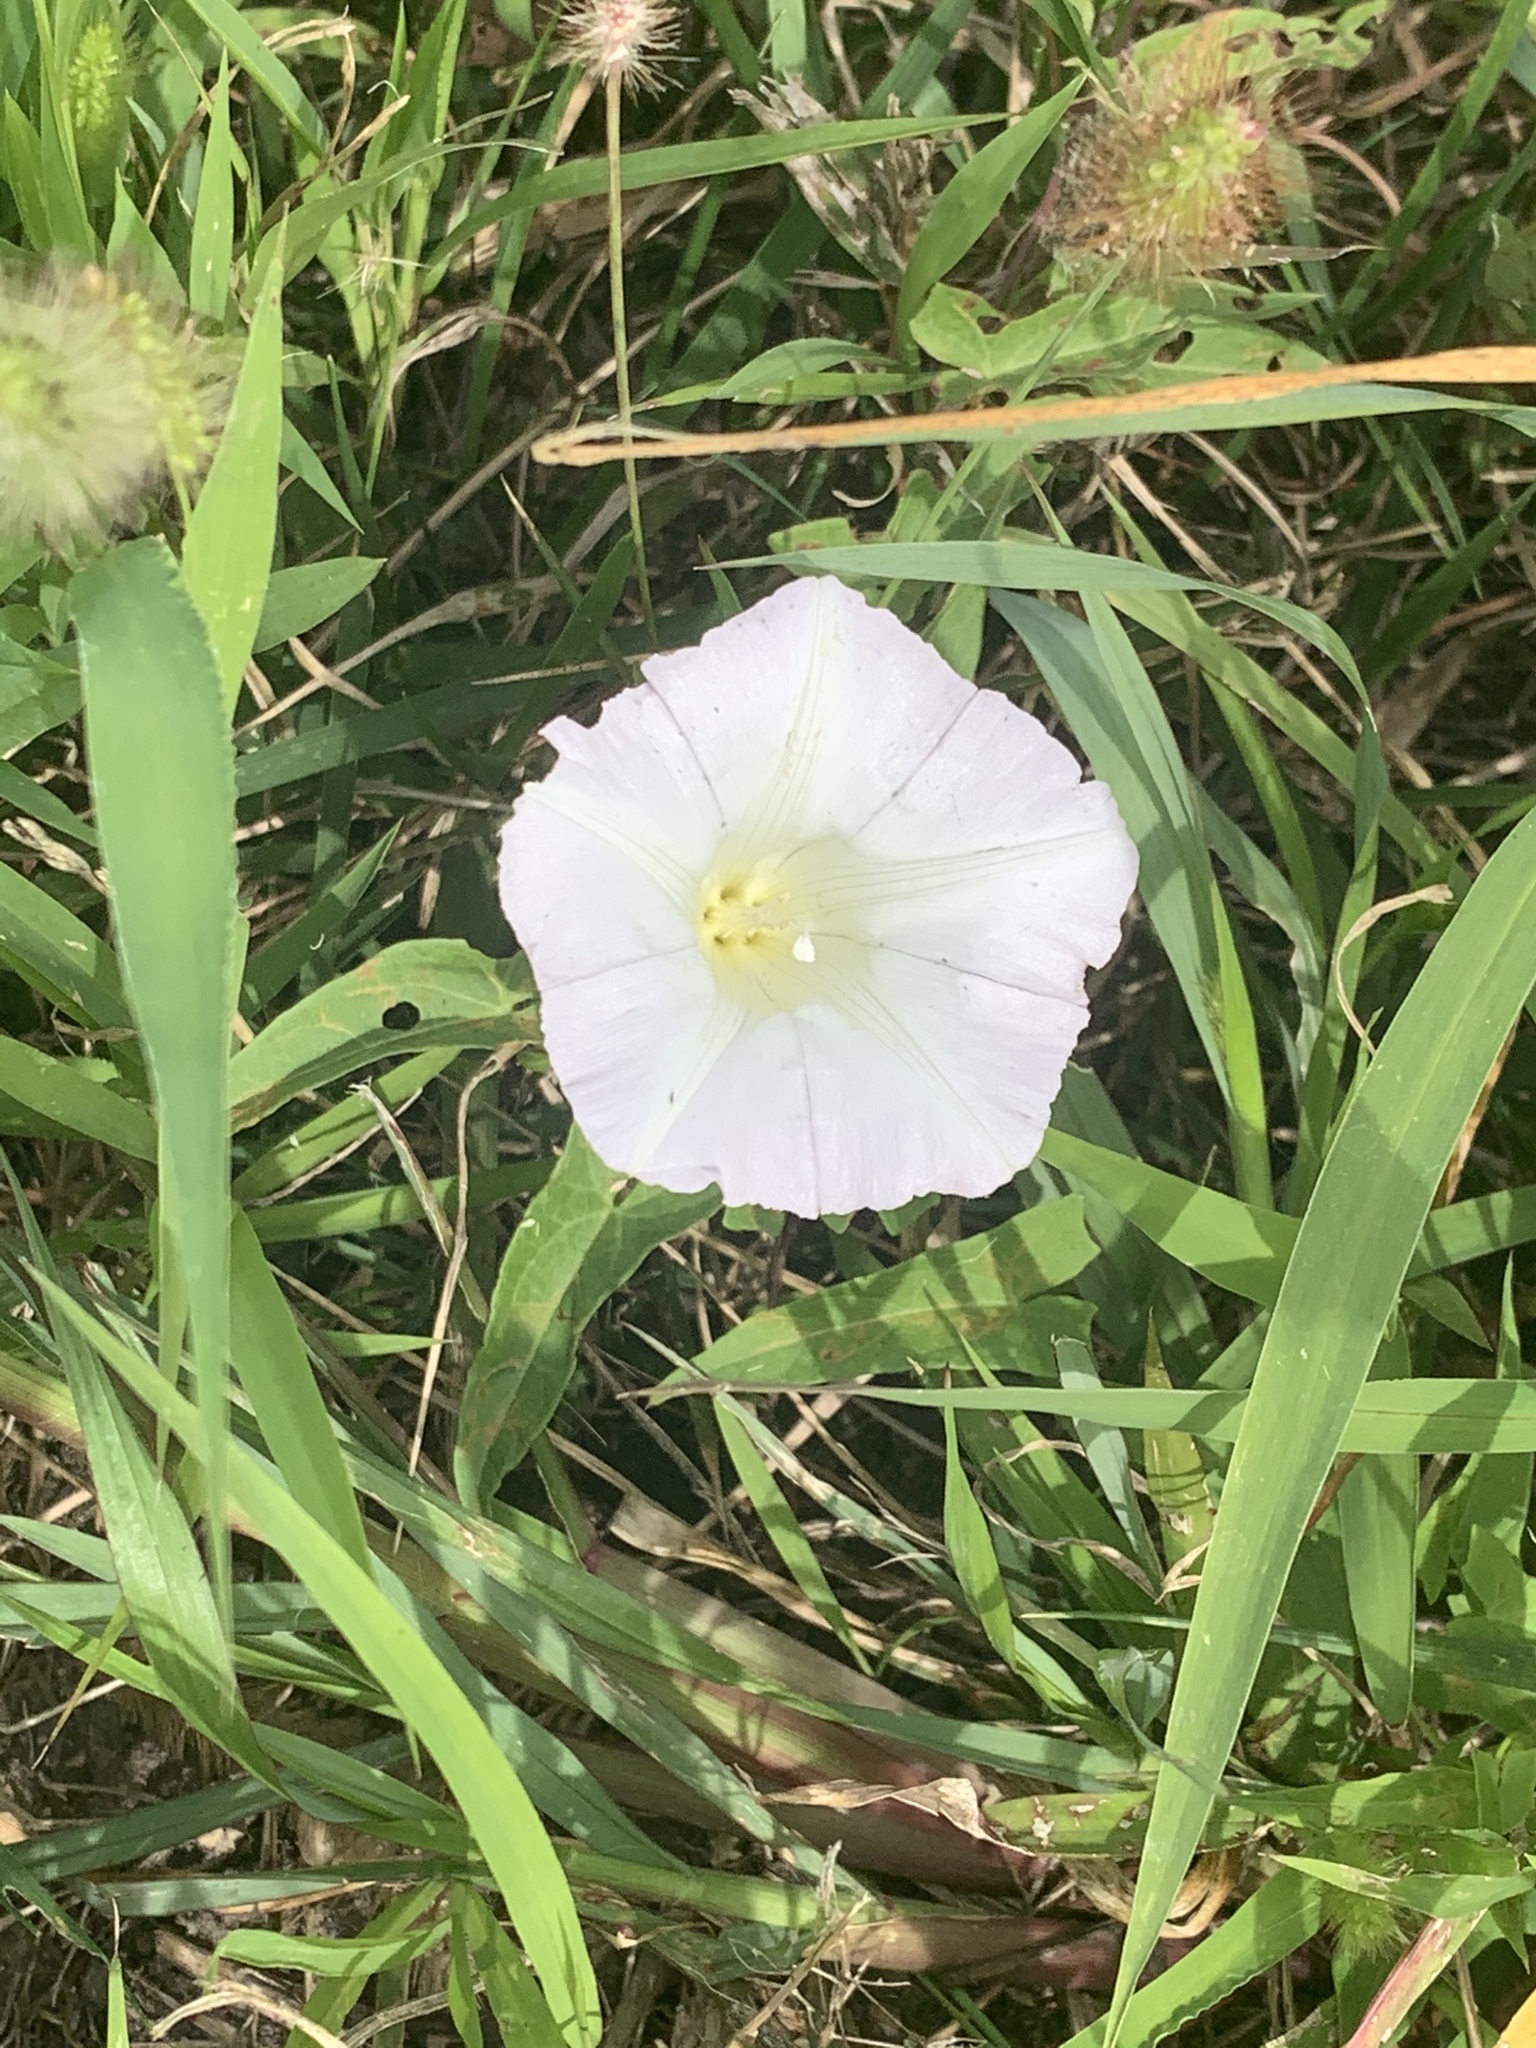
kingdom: Plantae
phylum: Tracheophyta
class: Magnoliopsida
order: Solanales
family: Convolvulaceae
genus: Calystegia
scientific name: Calystegia sepium
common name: Hedge bindweed
